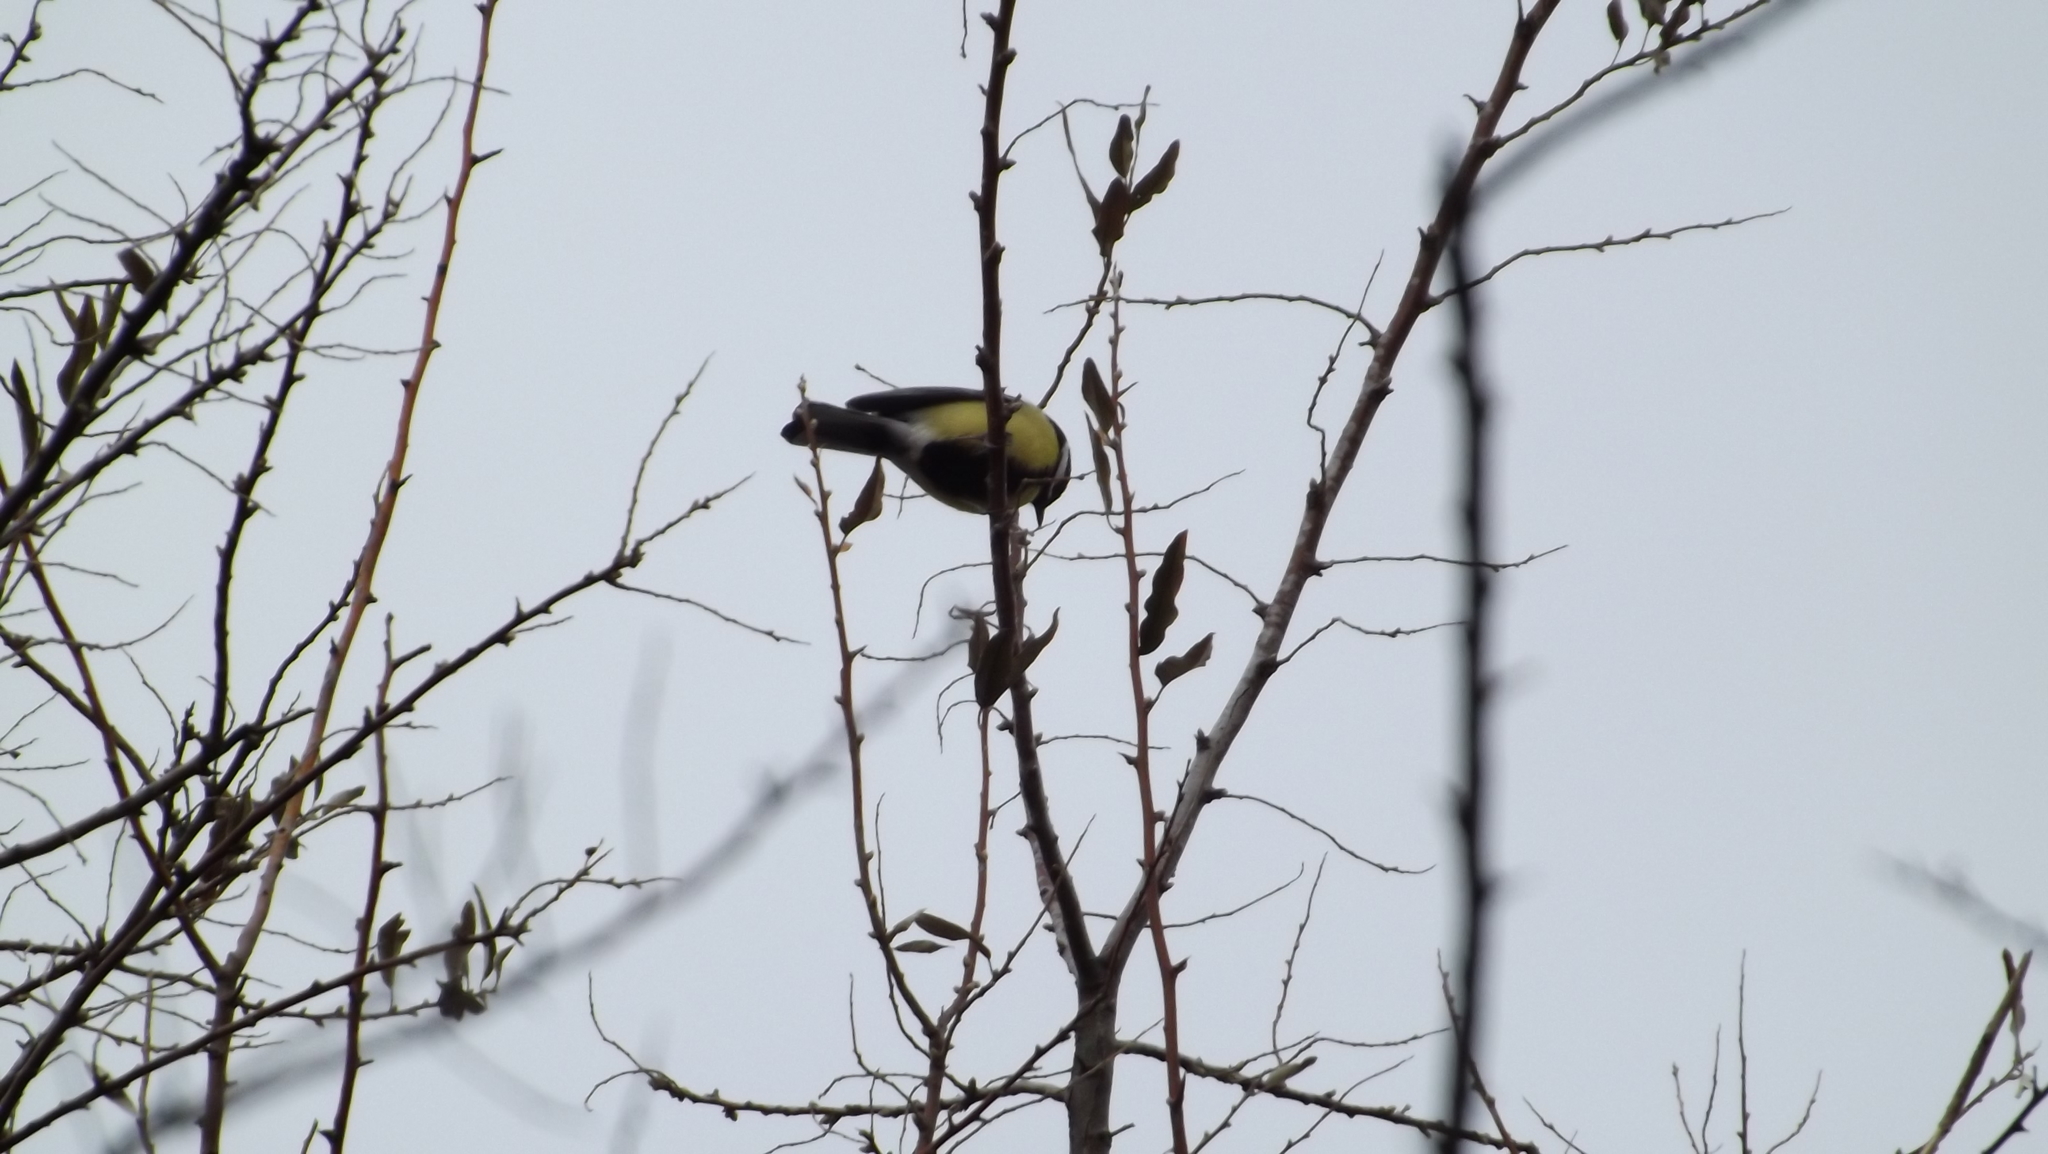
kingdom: Animalia
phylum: Chordata
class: Aves
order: Passeriformes
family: Paridae
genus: Parus
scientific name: Parus major
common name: Great tit
